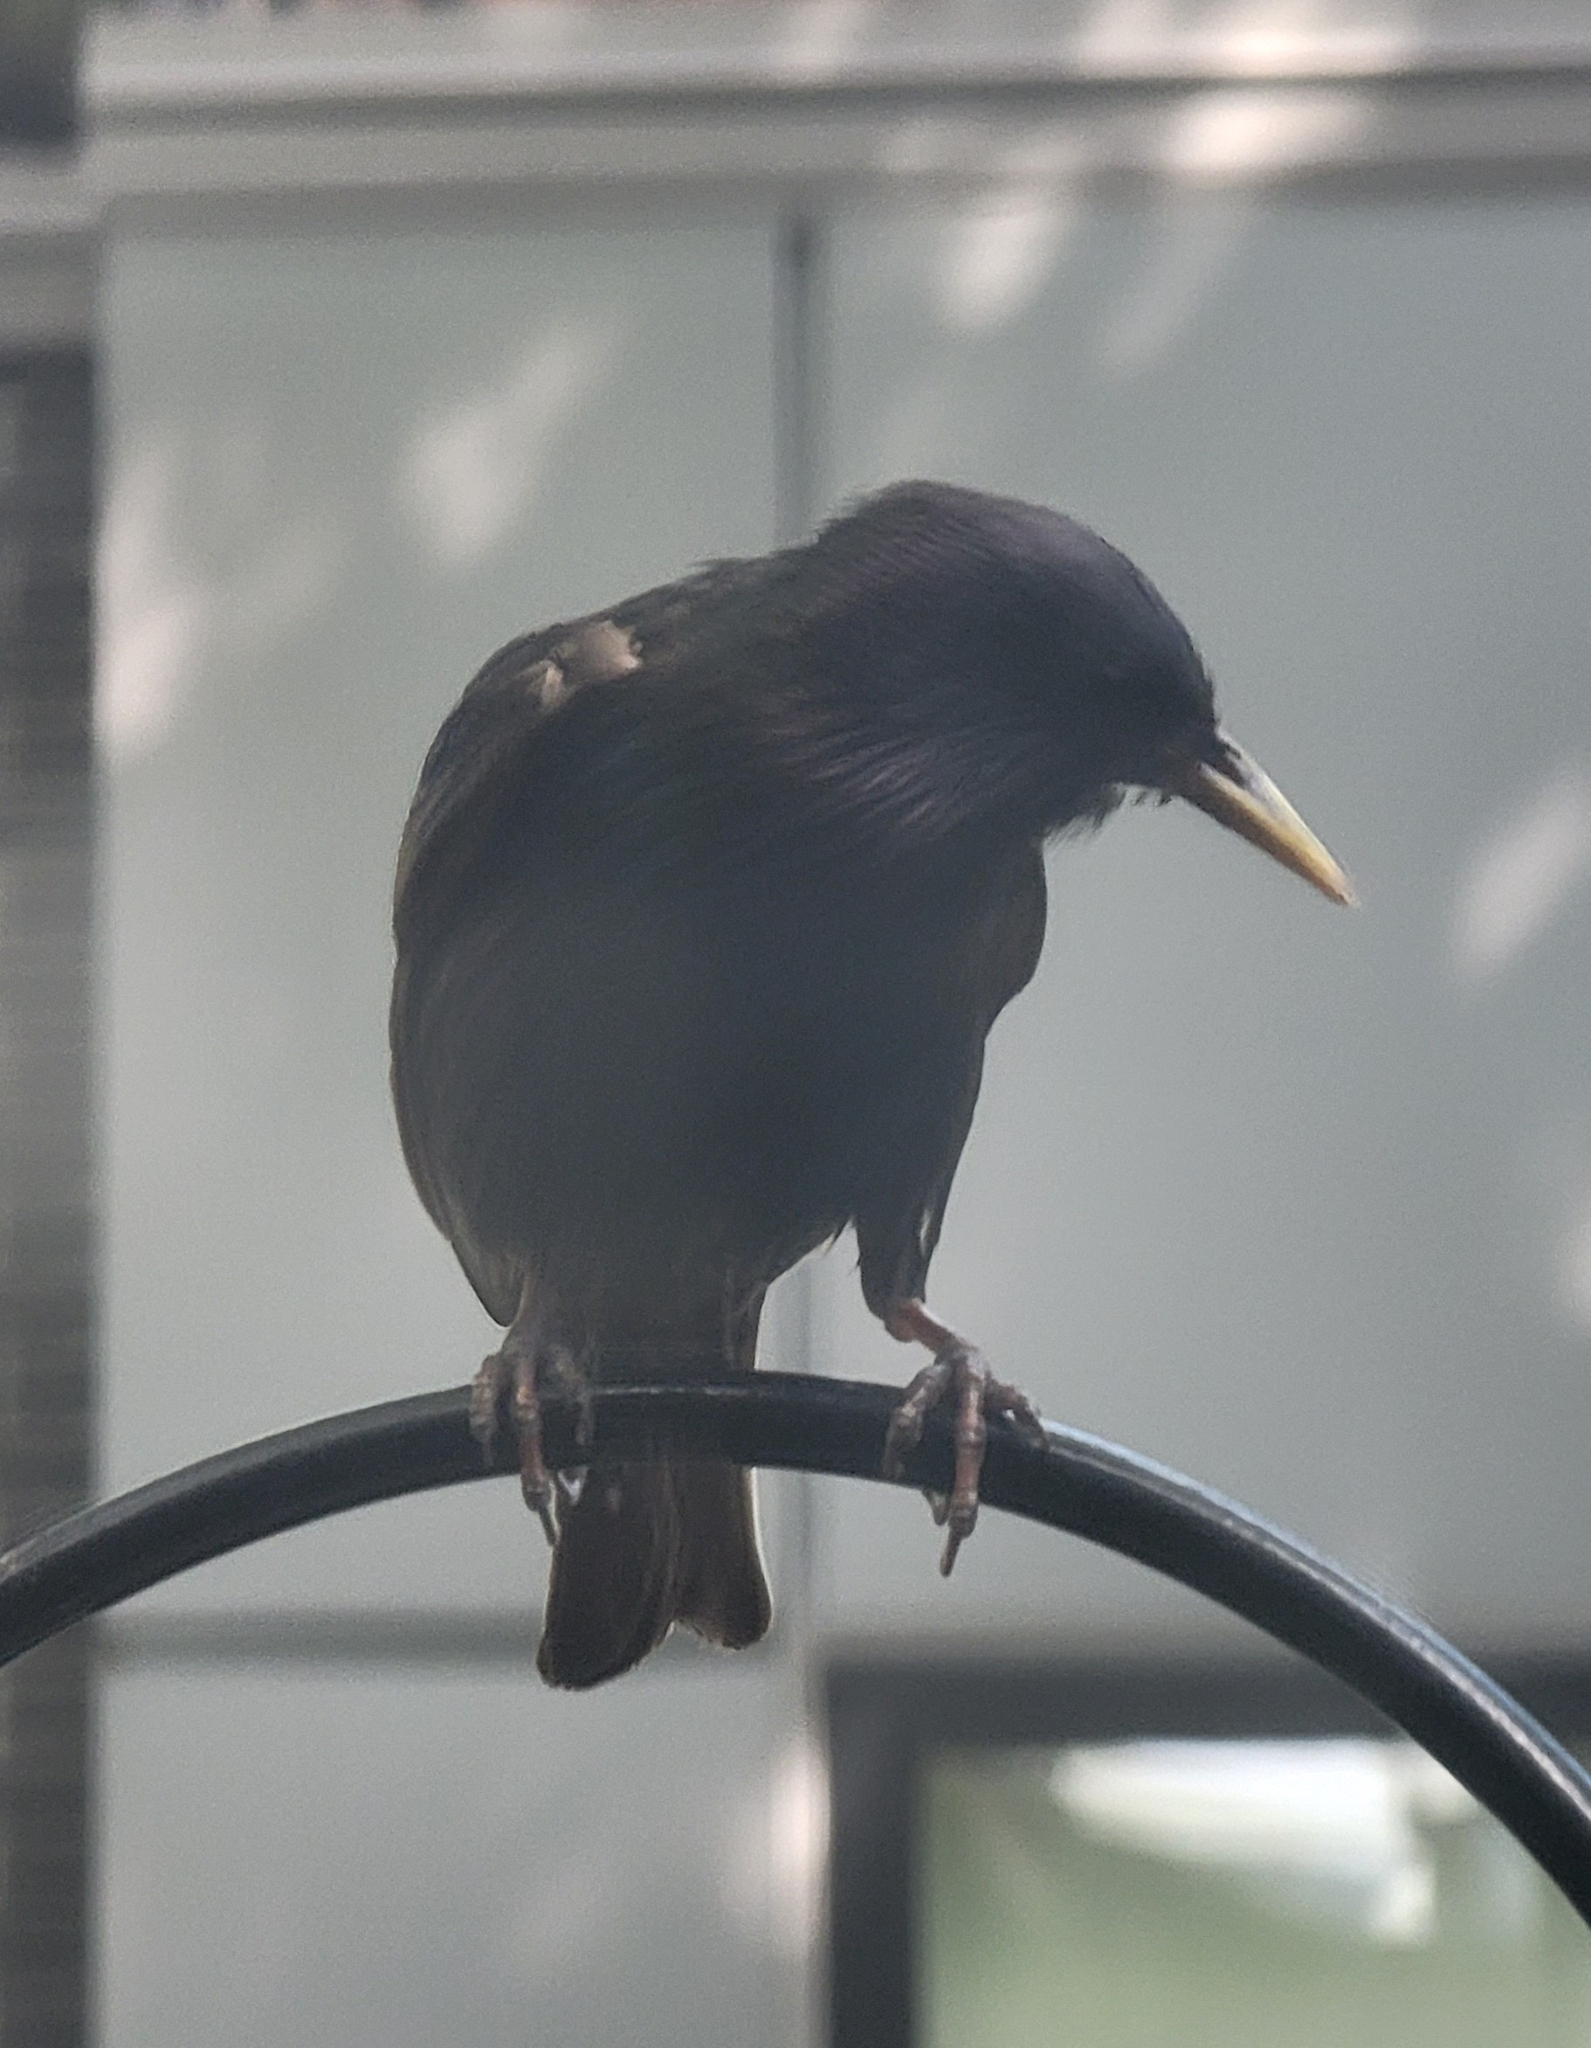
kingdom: Animalia
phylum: Chordata
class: Aves
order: Passeriformes
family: Sturnidae
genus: Sturnus
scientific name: Sturnus vulgaris
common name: Common starling
